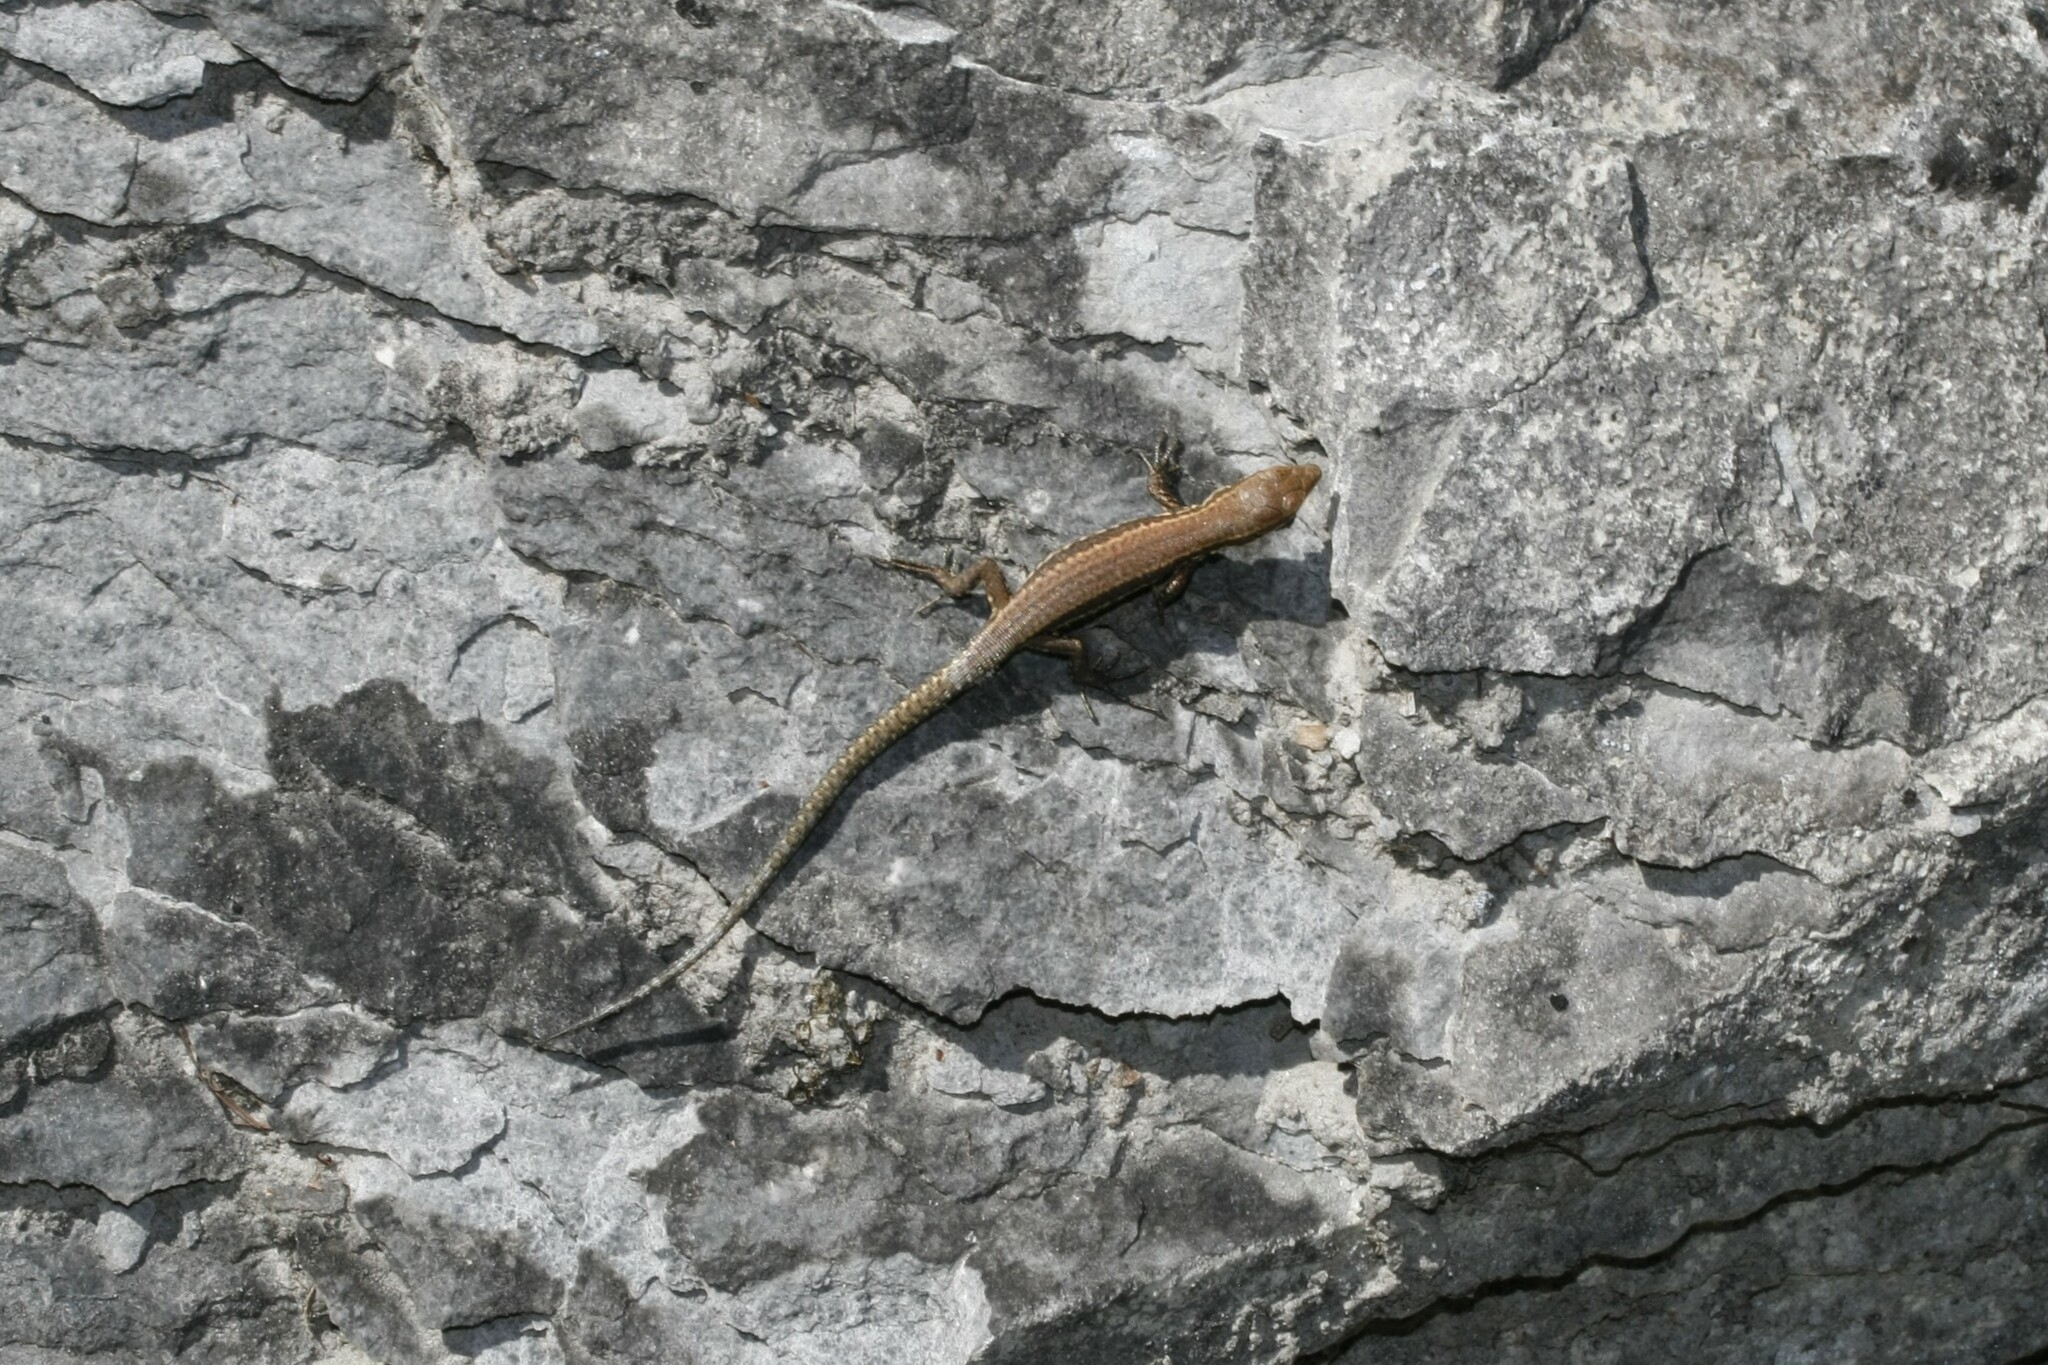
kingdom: Animalia
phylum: Chordata
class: Squamata
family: Lacertidae
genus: Podarcis
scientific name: Podarcis muralis
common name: Common wall lizard
